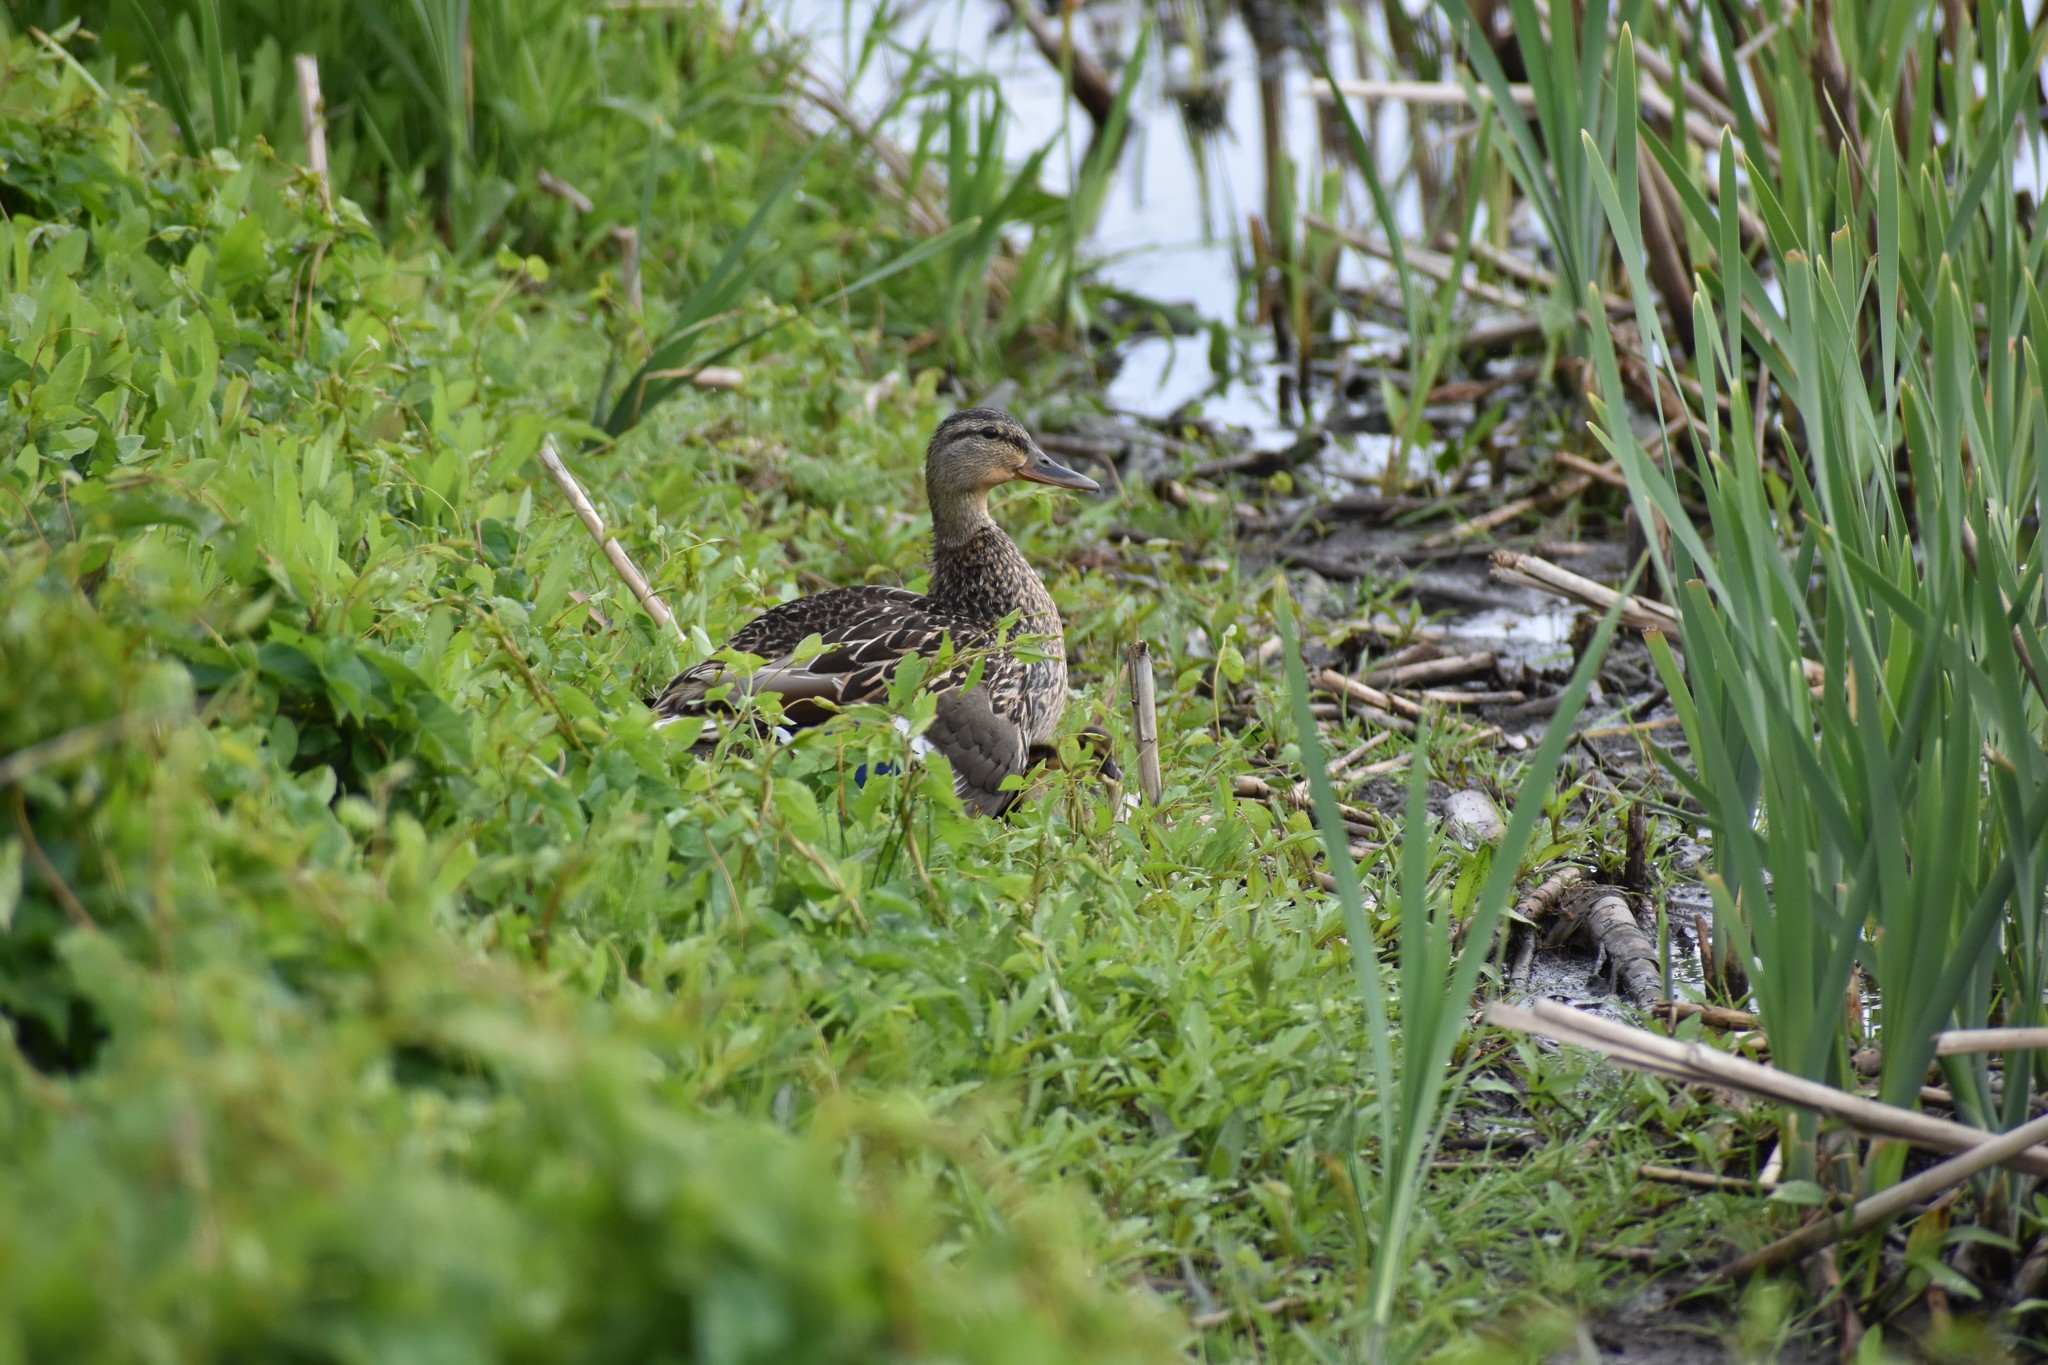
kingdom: Animalia
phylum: Chordata
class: Aves
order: Anseriformes
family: Anatidae
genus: Anas
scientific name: Anas platyrhynchos
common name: Mallard
